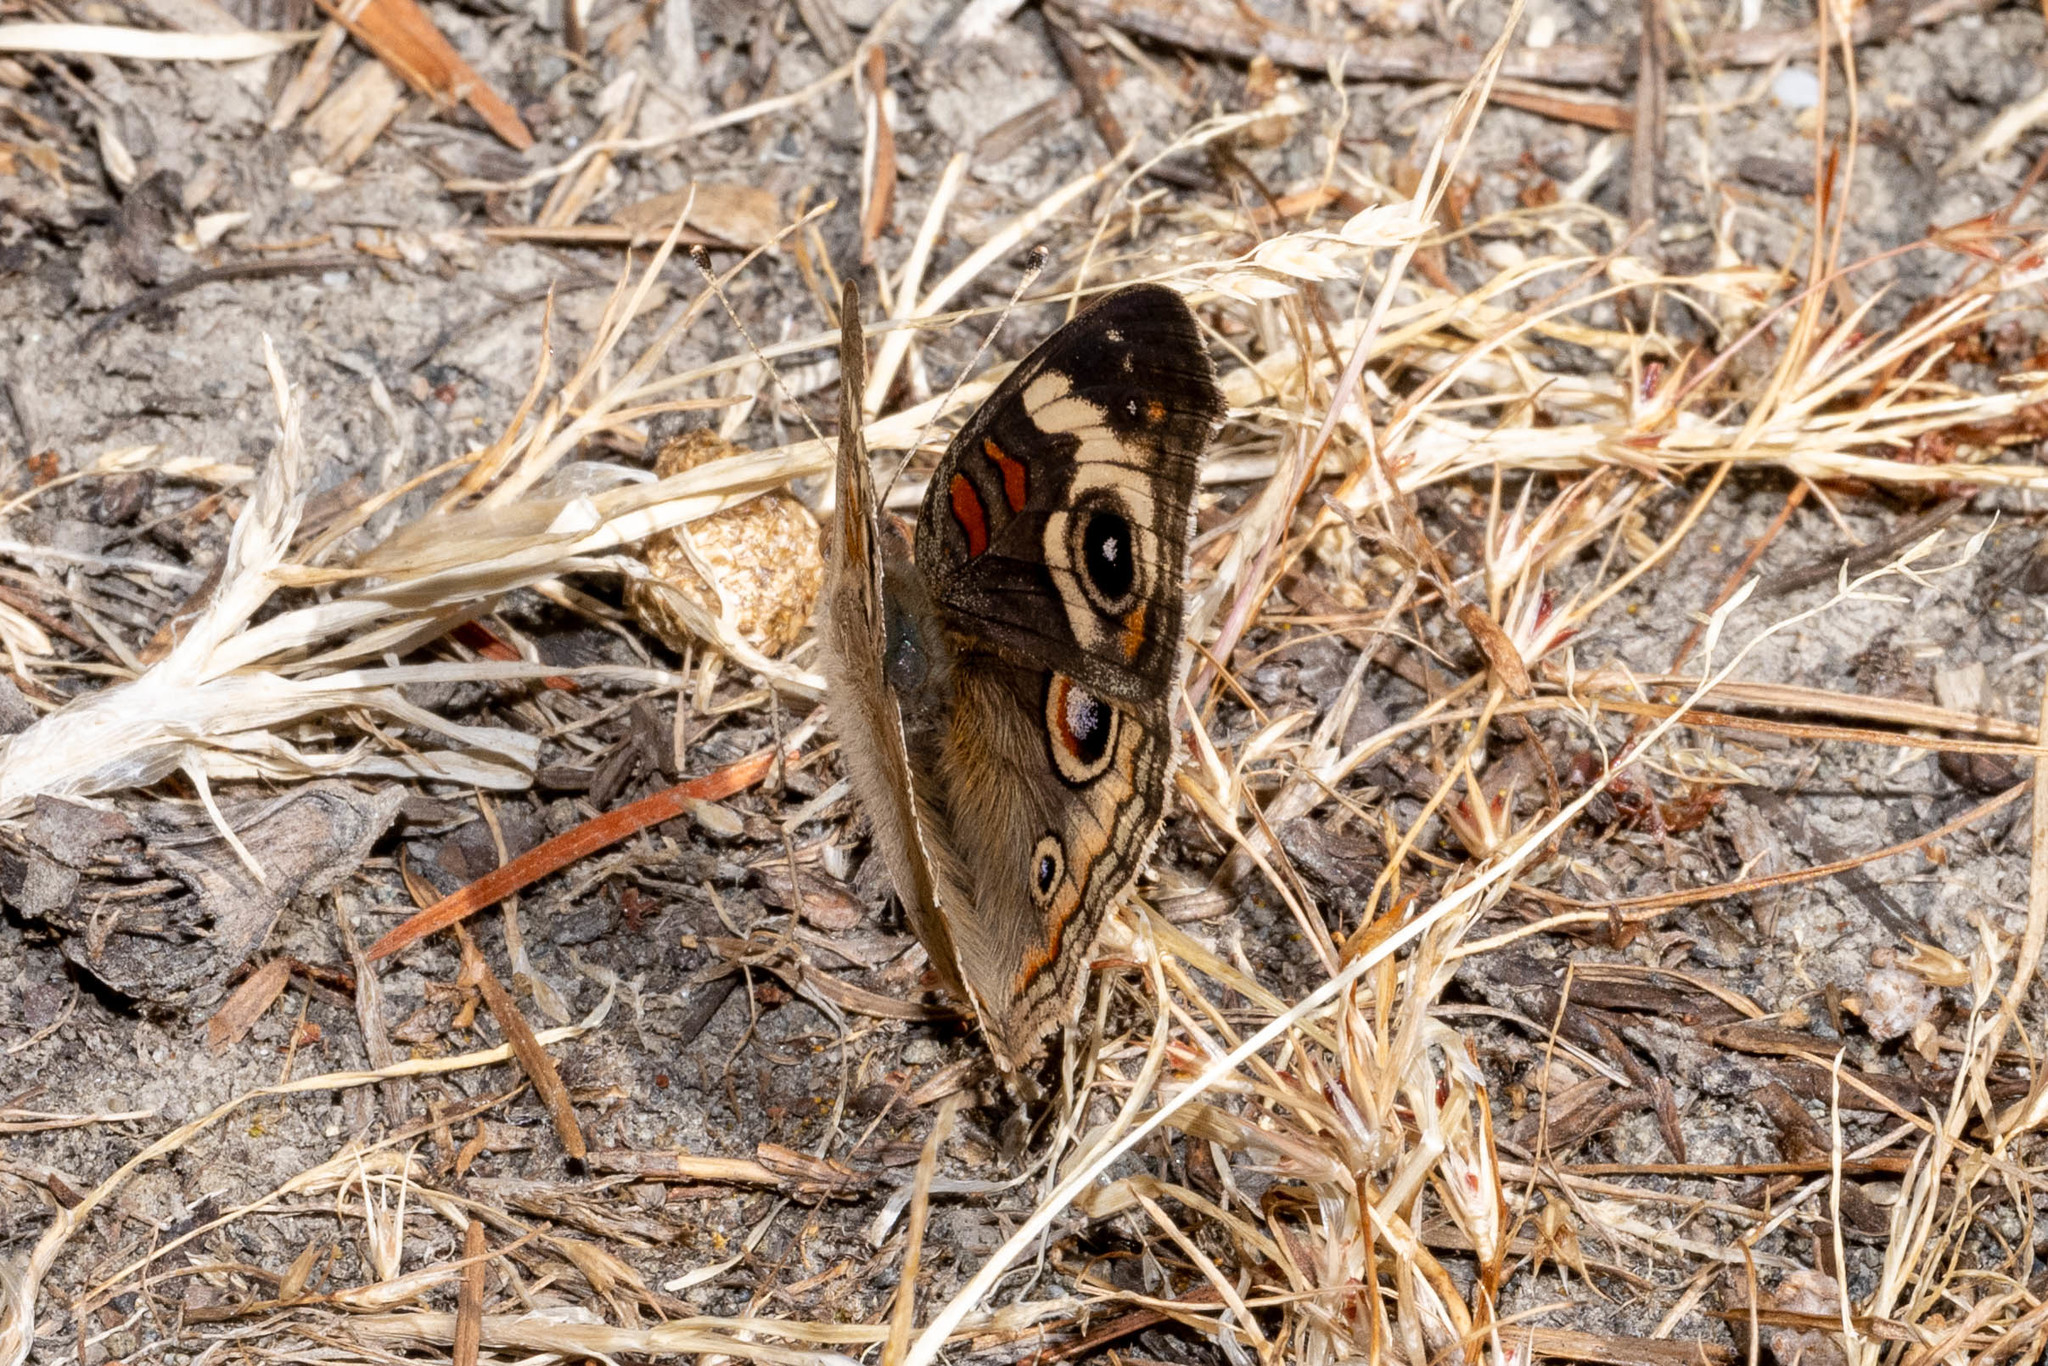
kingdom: Animalia
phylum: Arthropoda
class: Insecta
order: Lepidoptera
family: Nymphalidae
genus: Junonia
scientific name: Junonia grisea
